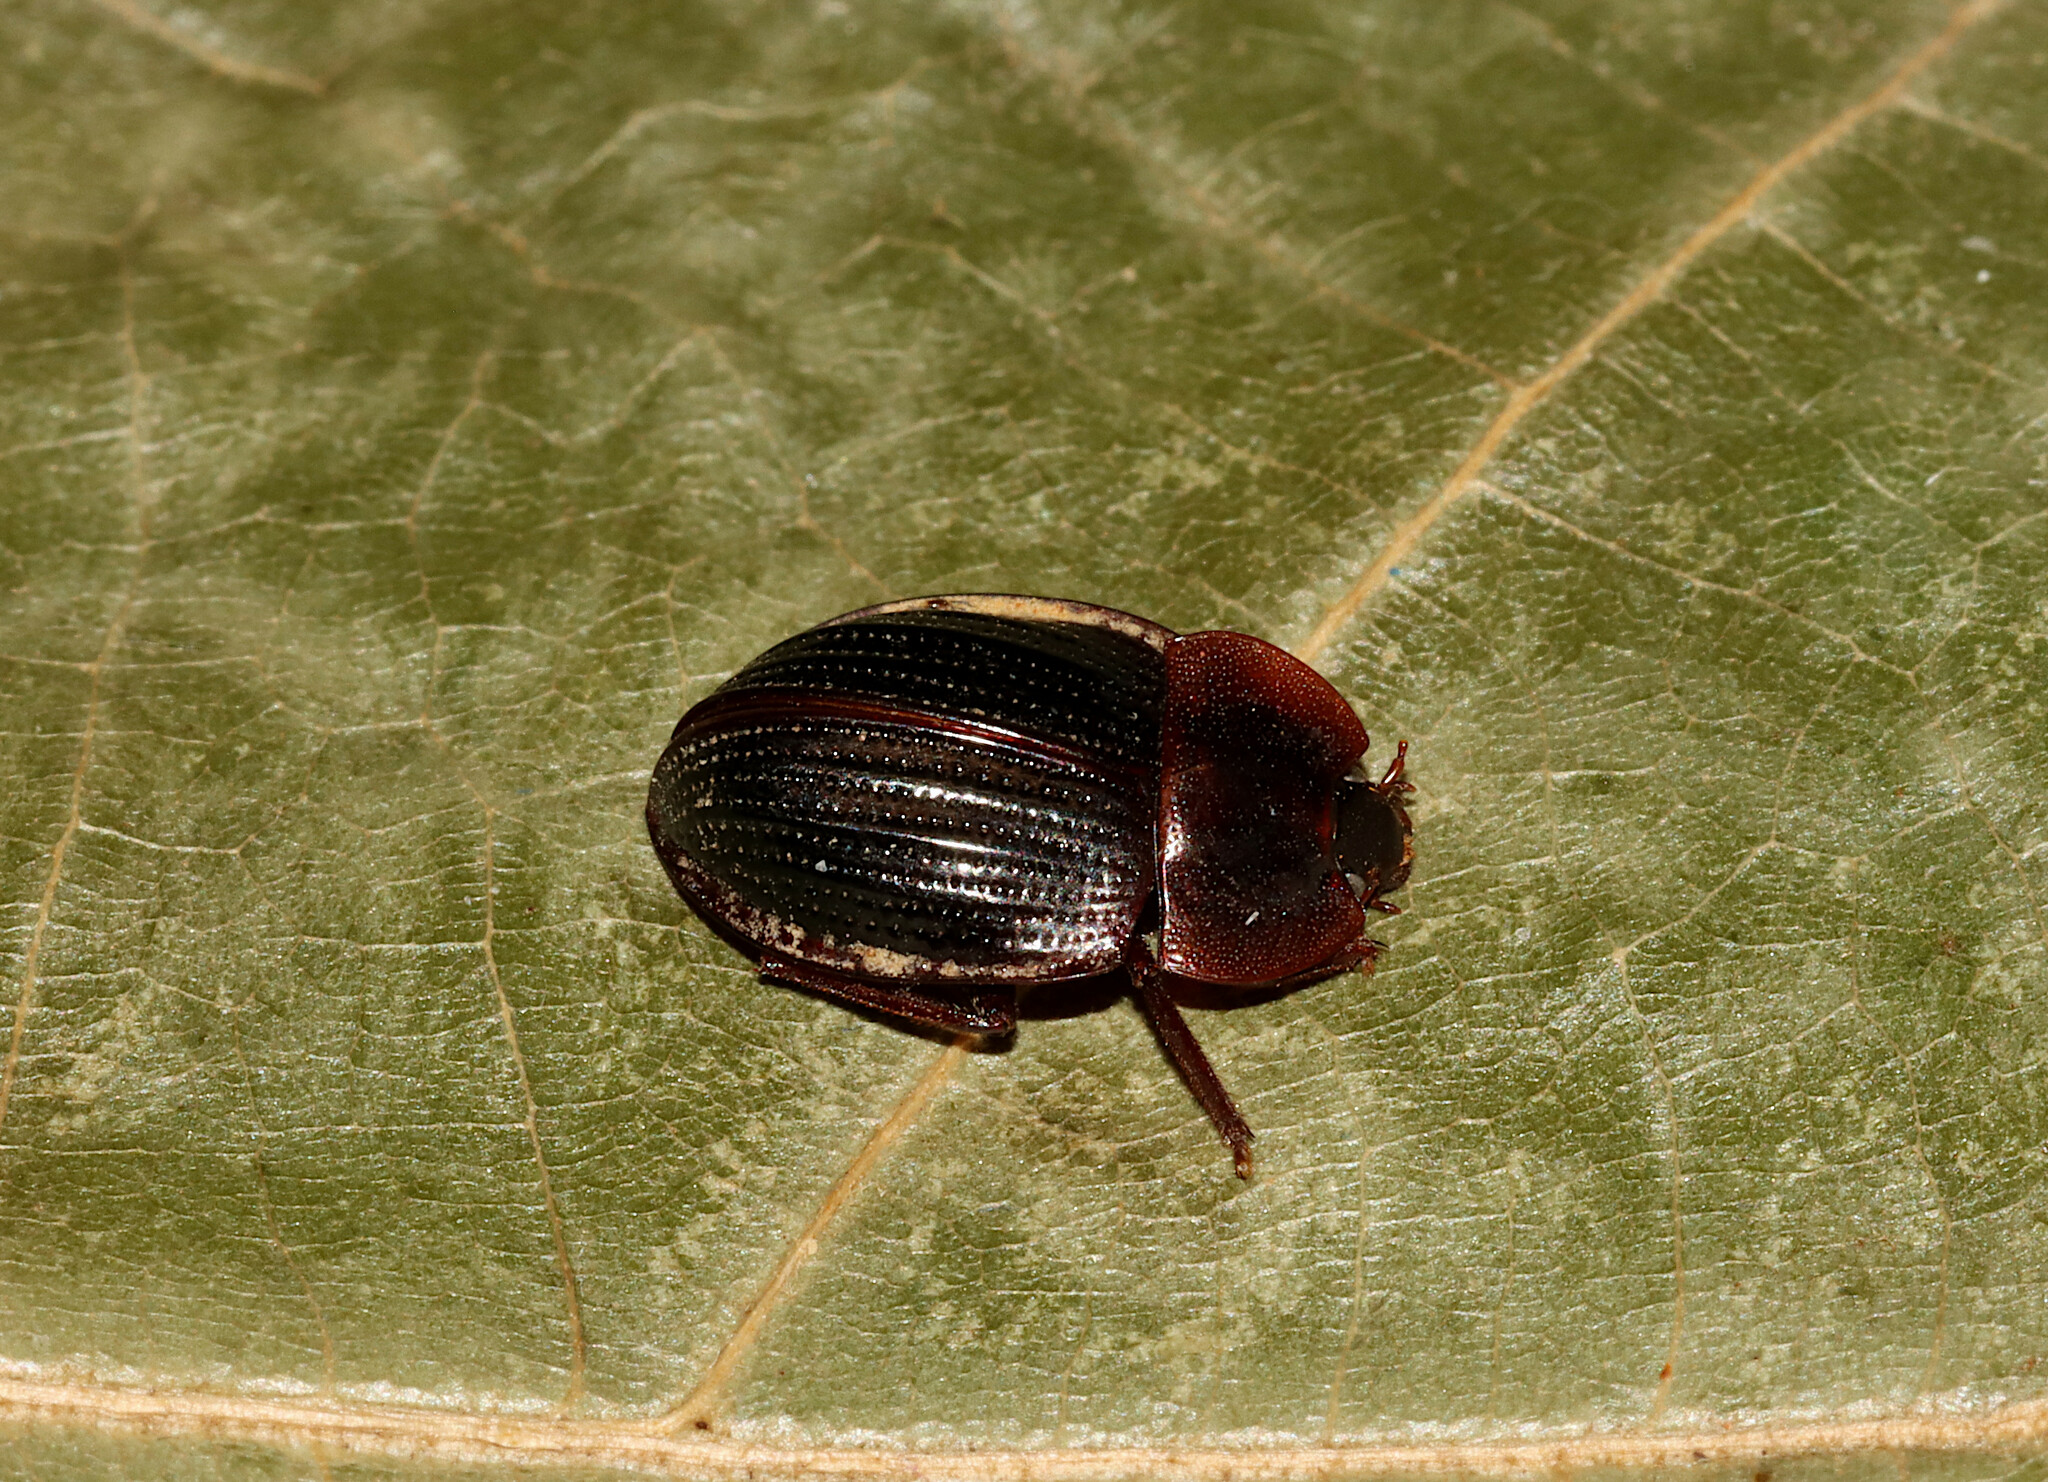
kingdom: Animalia
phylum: Arthropoda
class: Insecta
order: Coleoptera
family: Agyrtidae
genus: Necrophilus
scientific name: Necrophilus pettitii
